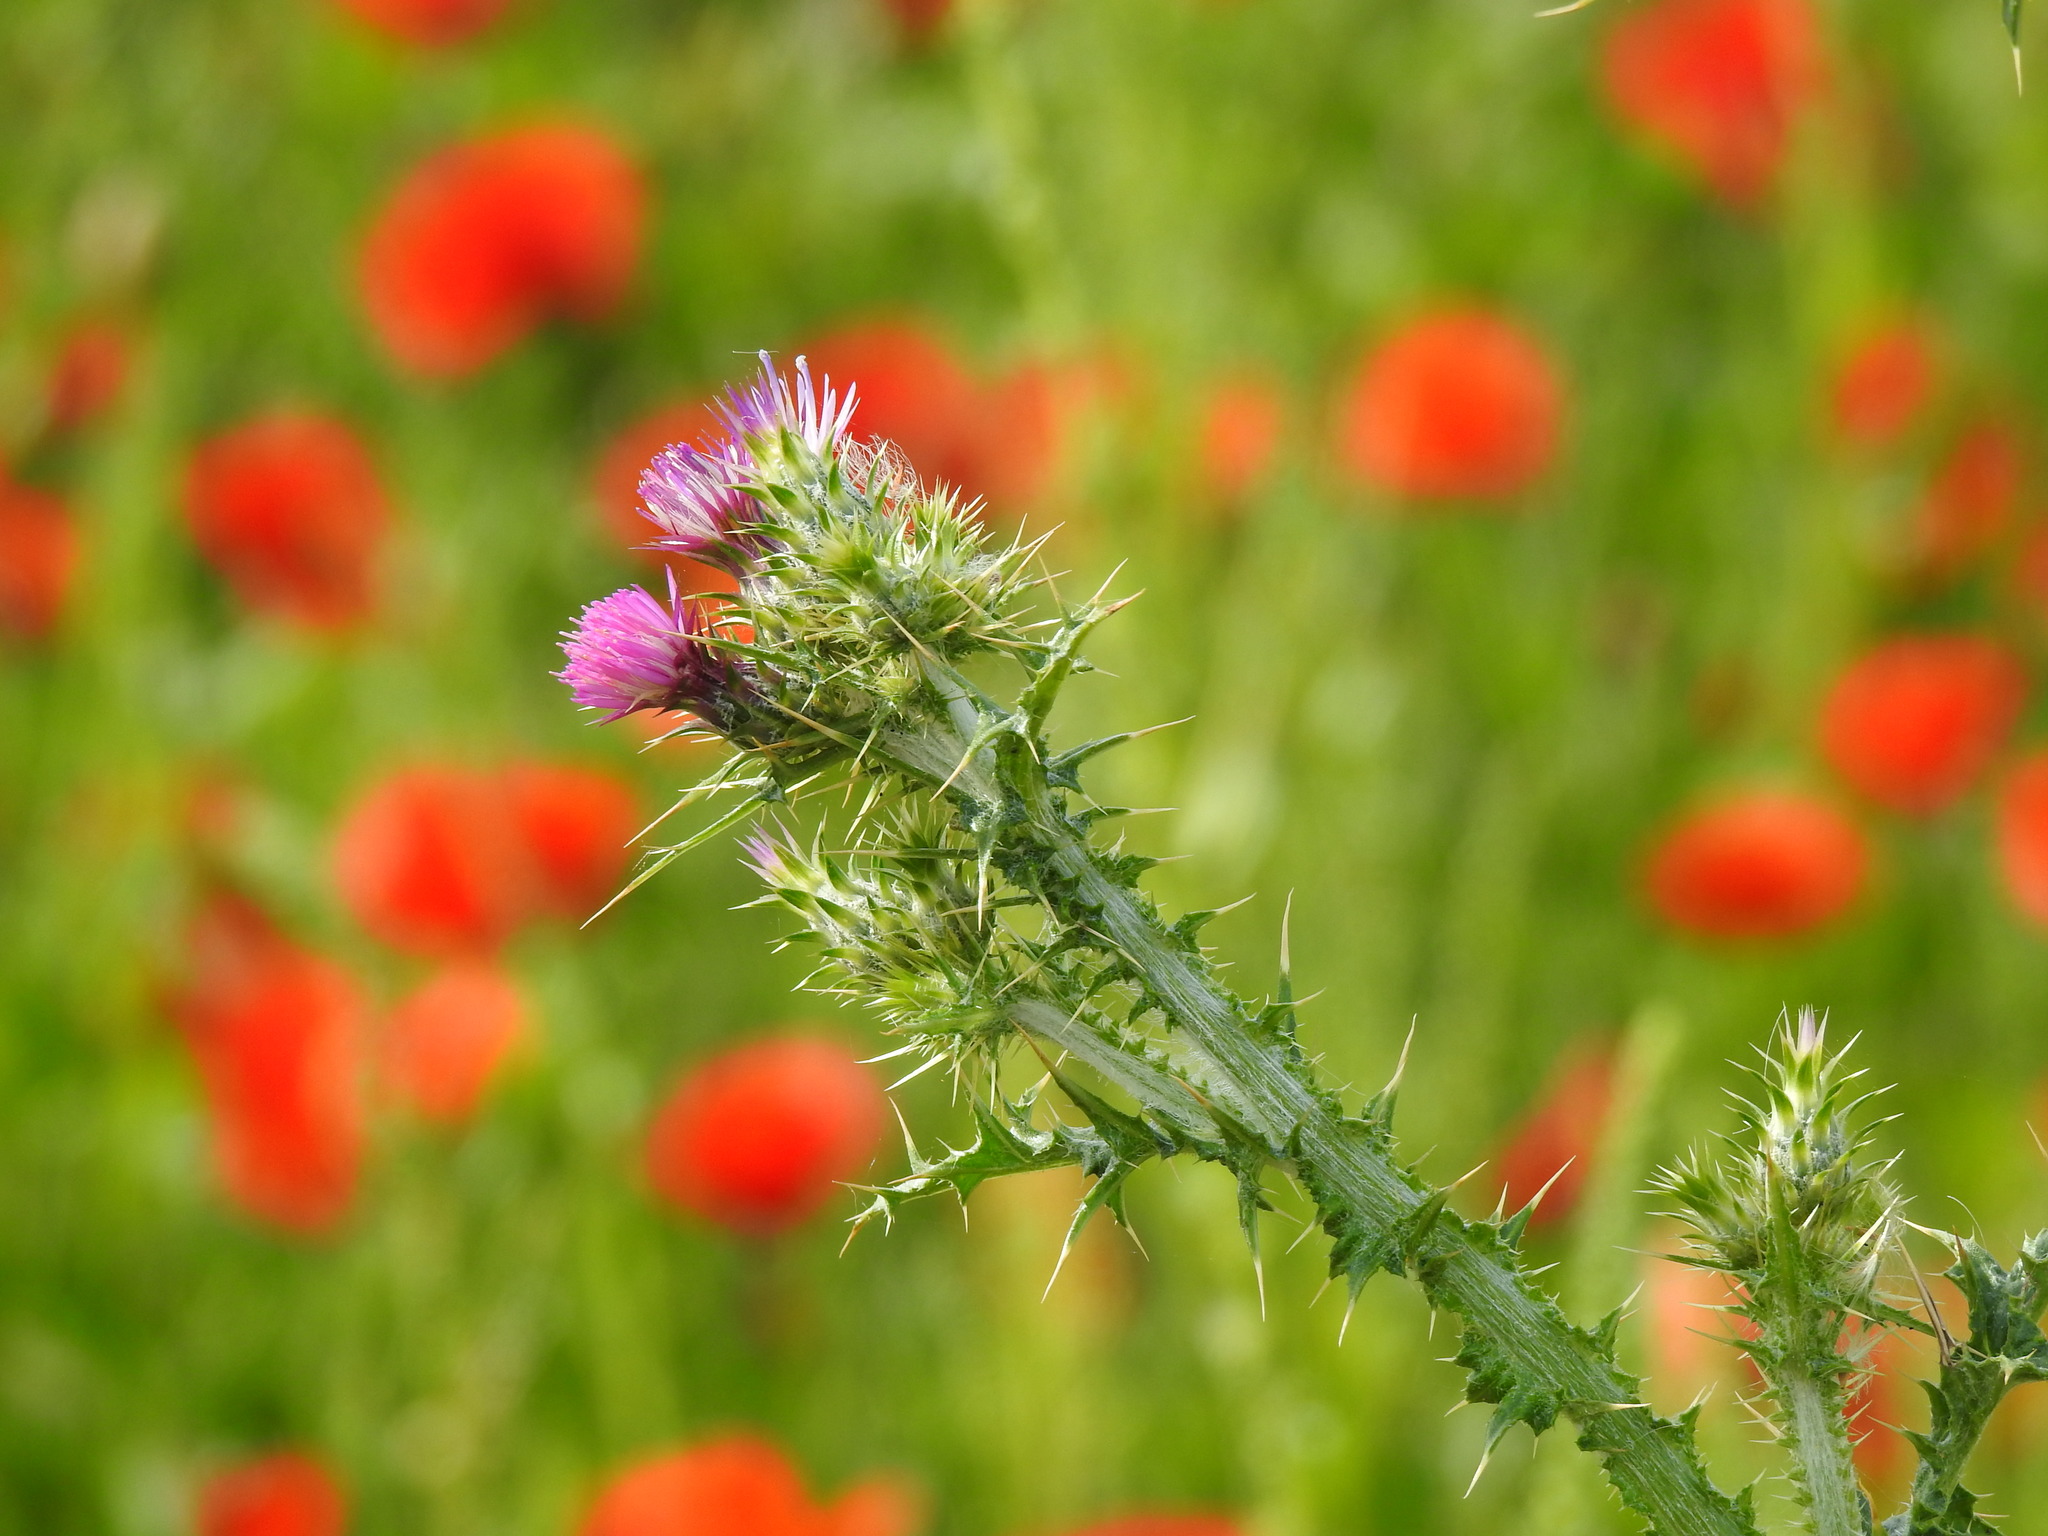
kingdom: Plantae
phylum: Tracheophyta
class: Magnoliopsida
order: Asterales
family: Asteraceae
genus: Carduus
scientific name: Carduus tenuiflorus
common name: Slender thistle
